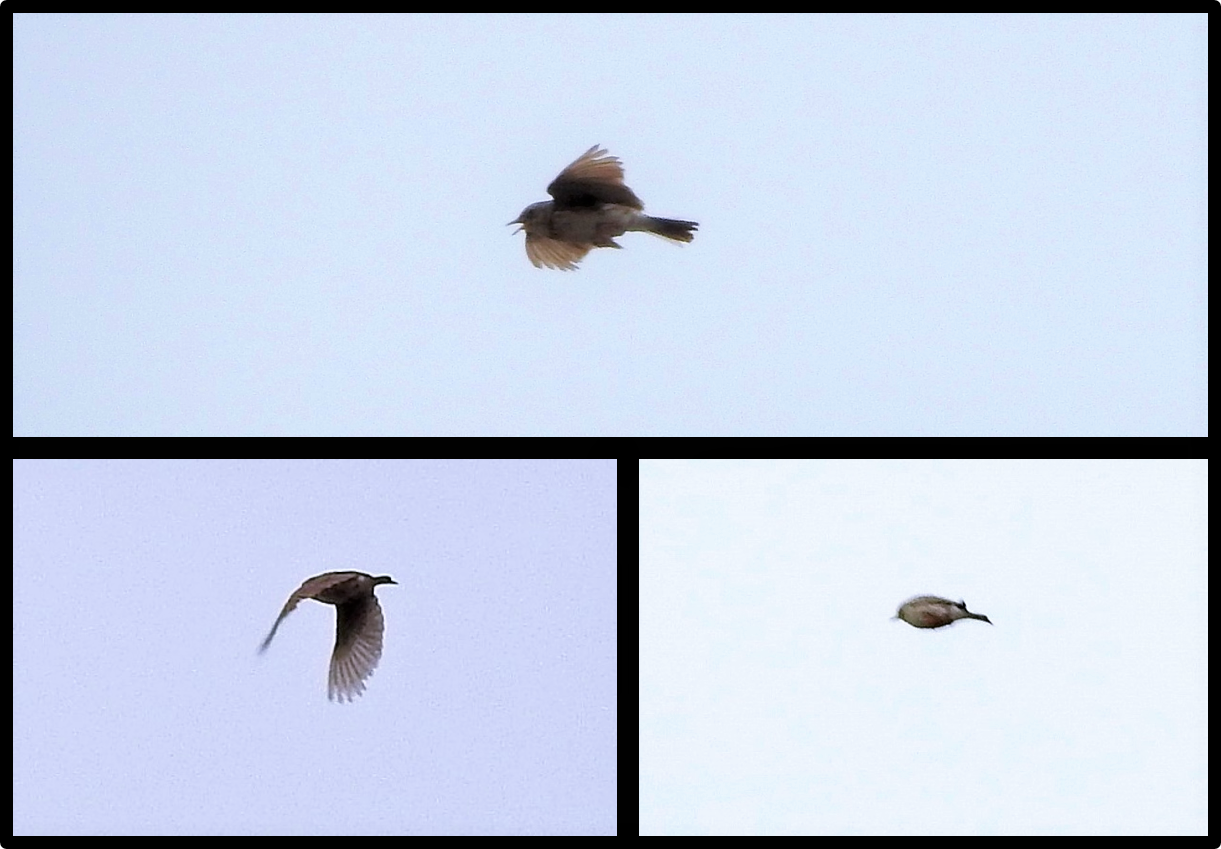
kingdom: Animalia
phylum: Chordata
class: Aves
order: Passeriformes
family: Motacillidae
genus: Anthus
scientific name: Anthus chacoensis
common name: Pampas pipit
